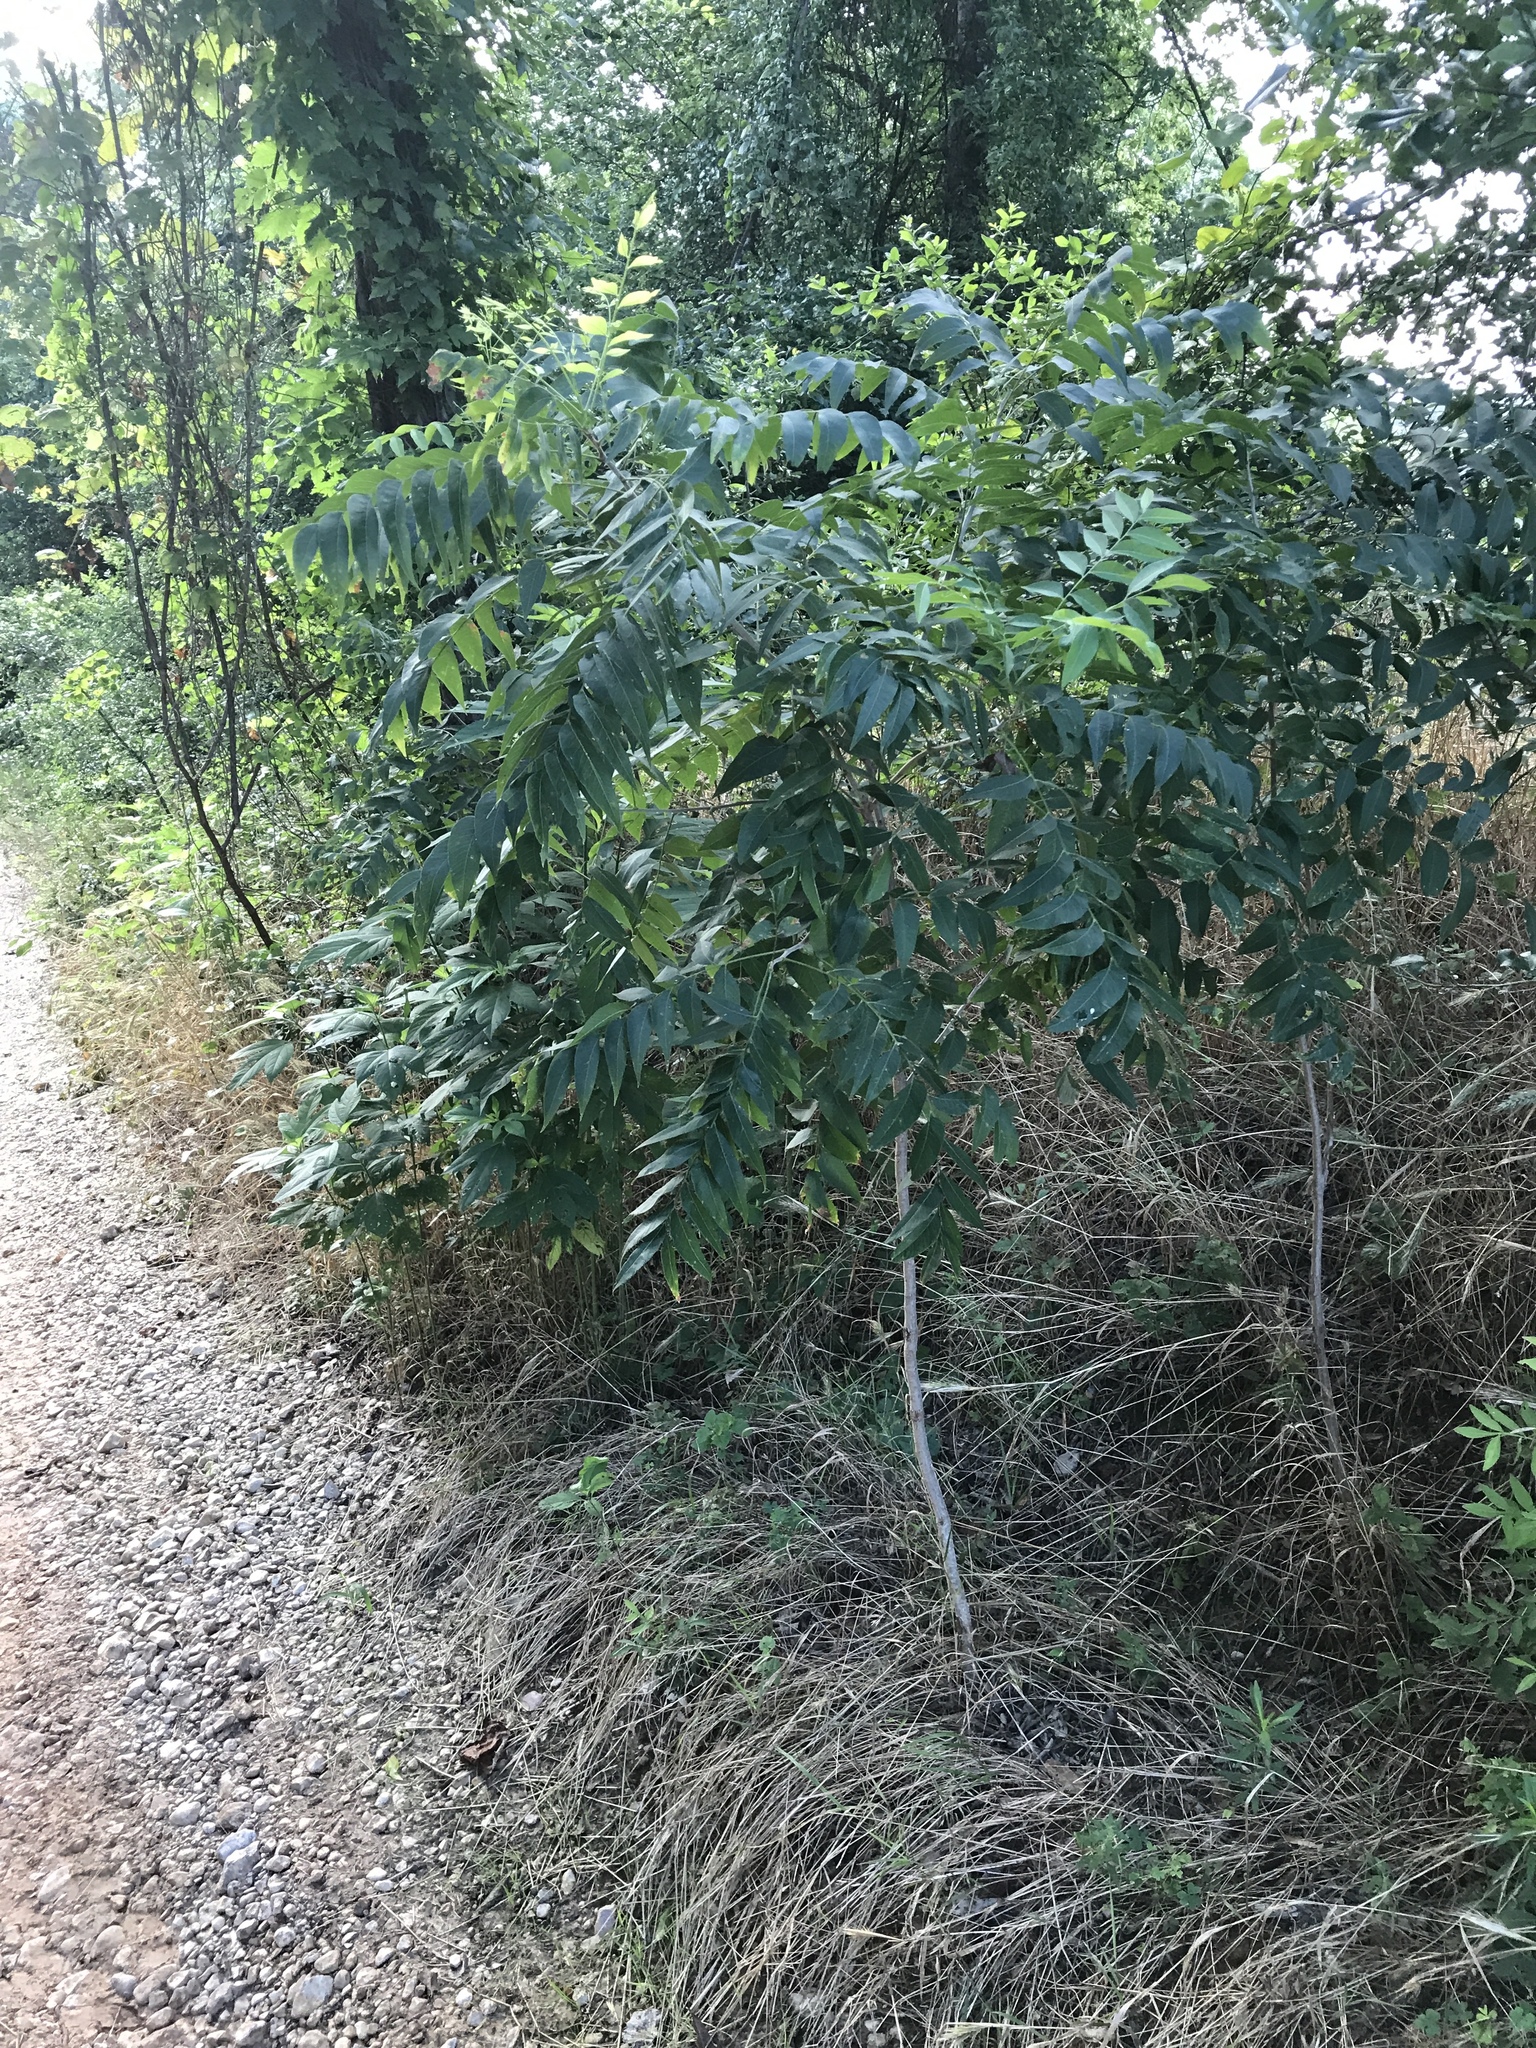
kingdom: Plantae
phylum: Tracheophyta
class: Magnoliopsida
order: Sapindales
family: Sapindaceae
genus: Sapindus
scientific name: Sapindus drummondii
